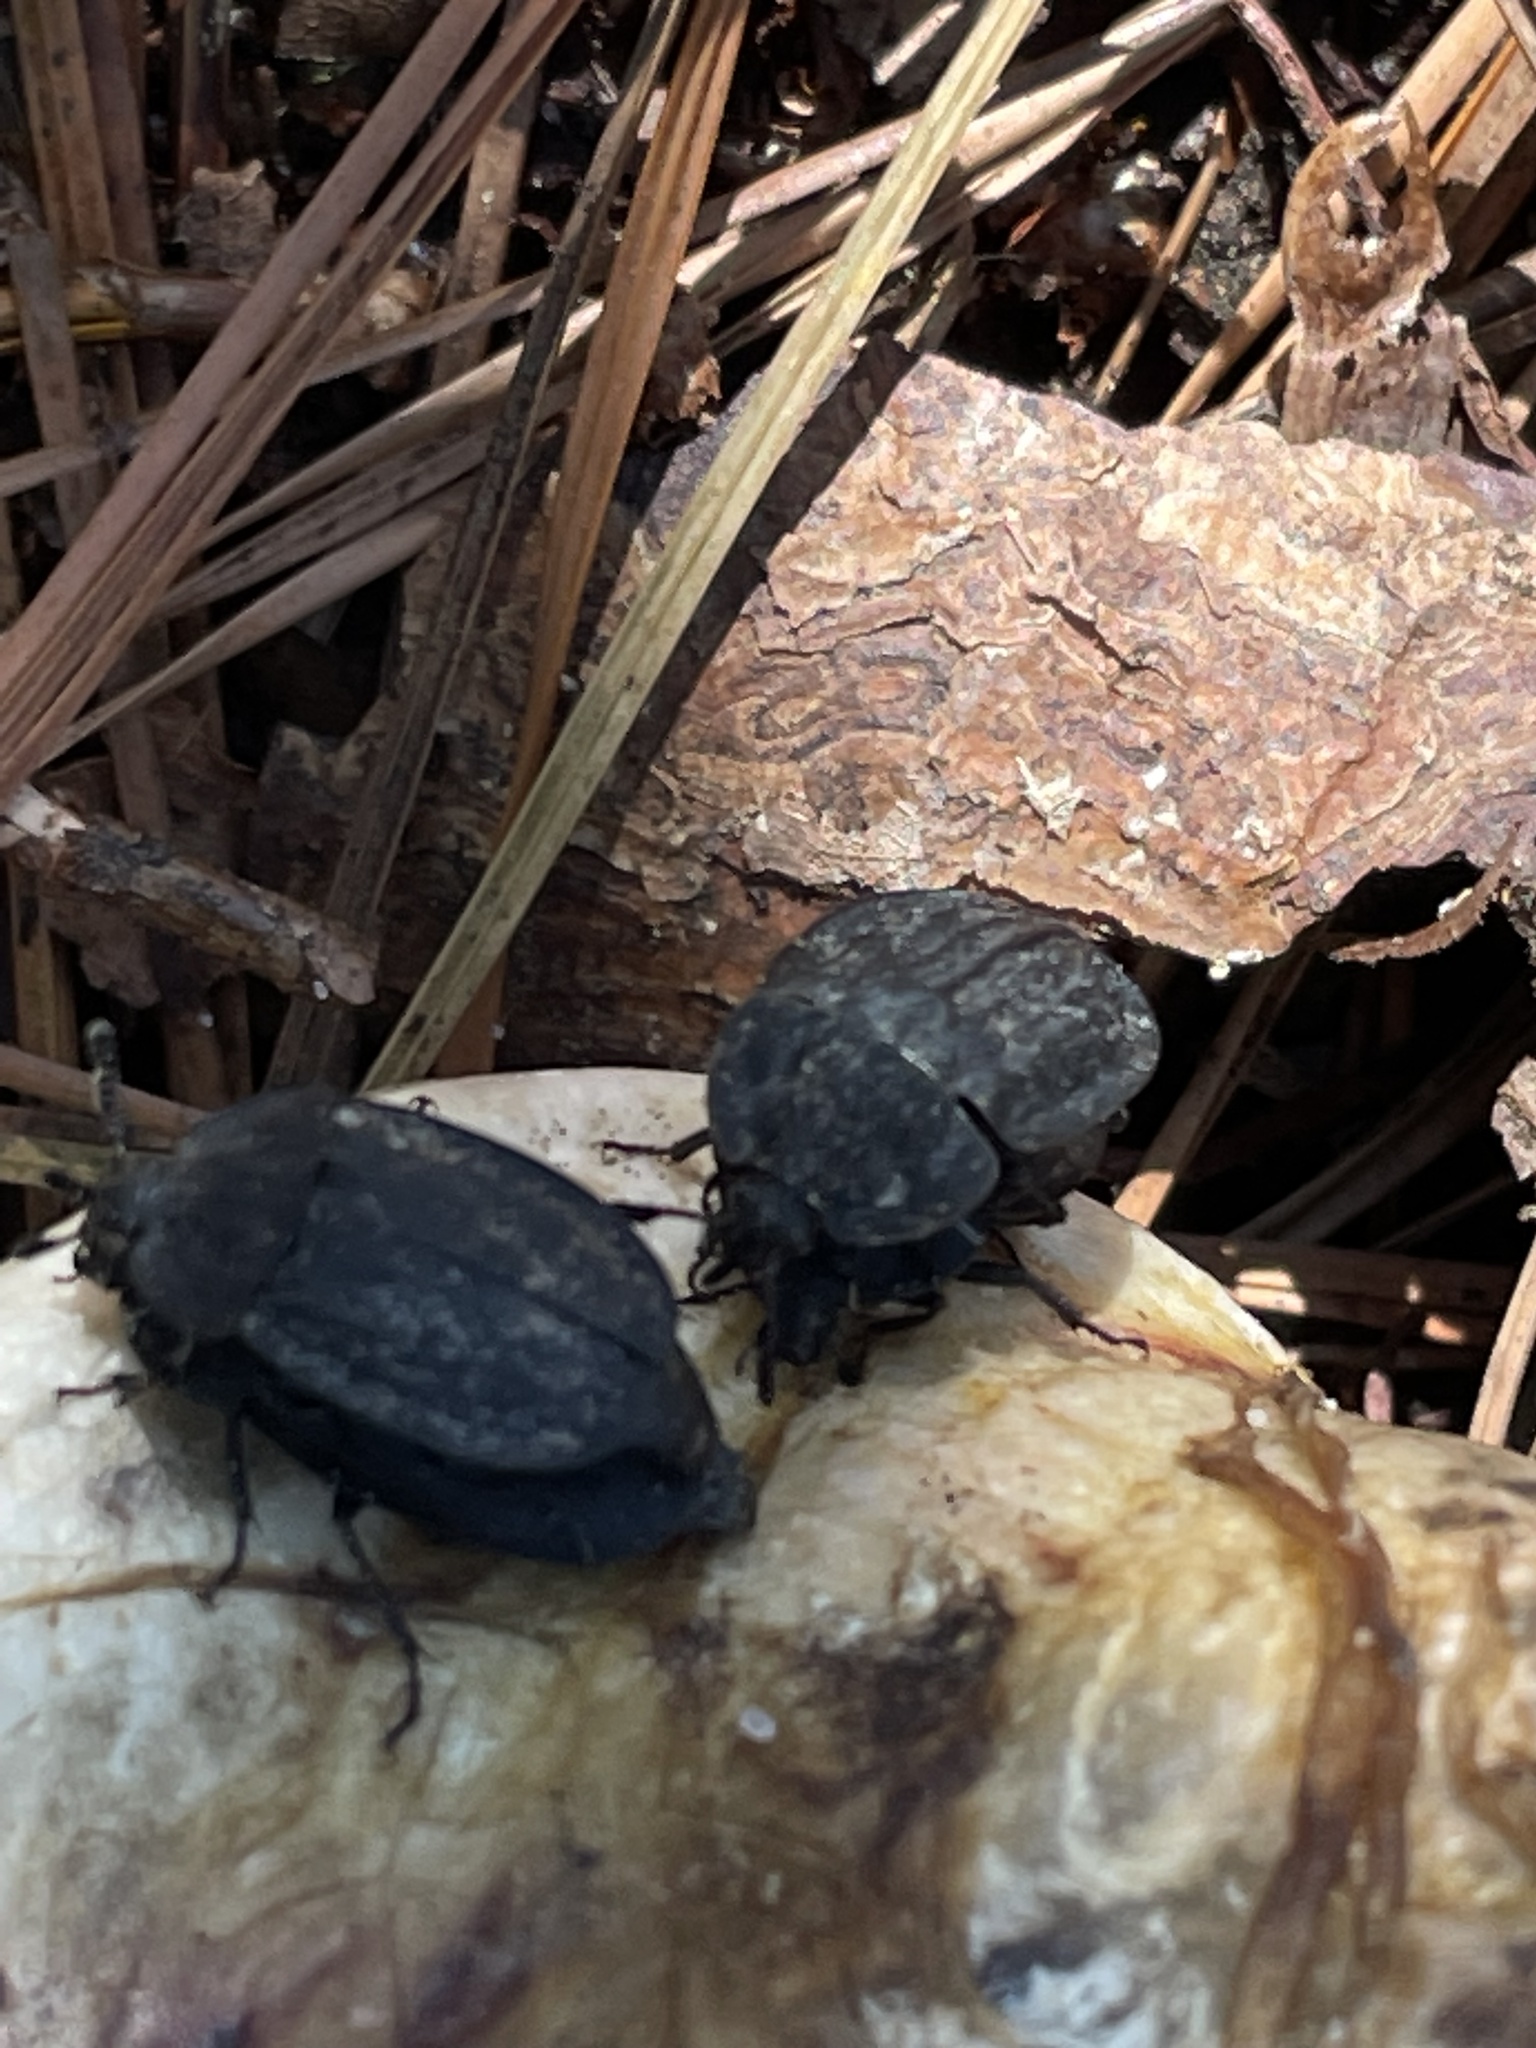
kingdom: Animalia
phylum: Arthropoda
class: Insecta
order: Coleoptera
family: Staphylinidae
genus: Oiceoptoma
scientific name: Oiceoptoma inaequale
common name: Ridged carrion beetle
